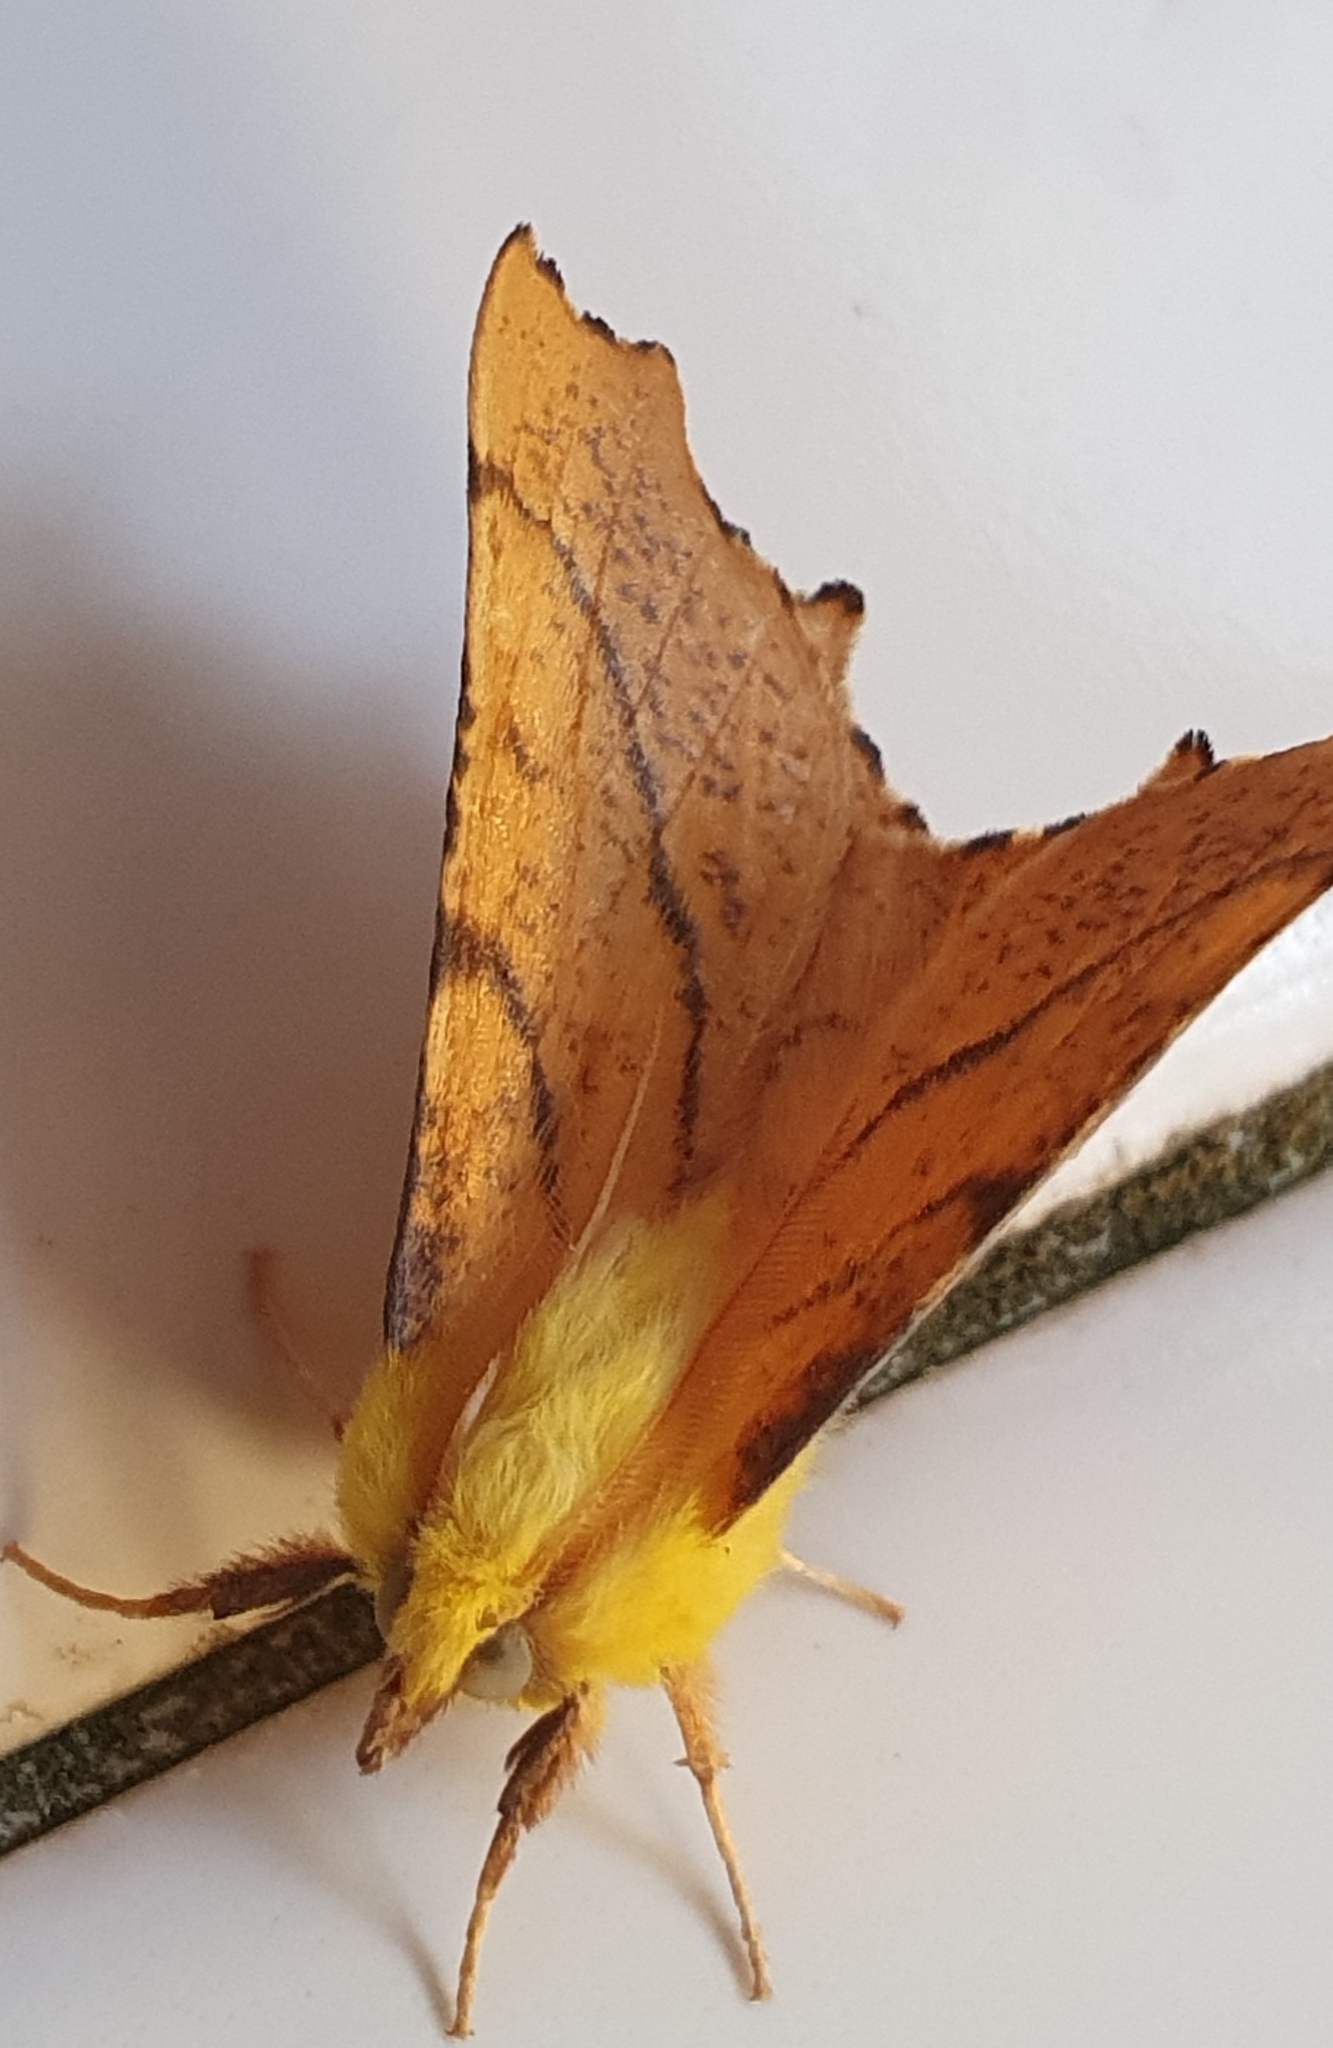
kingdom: Animalia
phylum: Arthropoda
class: Insecta
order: Lepidoptera
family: Geometridae
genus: Ennomos
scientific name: Ennomos alniaria
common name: Canary-shouldered thorn
